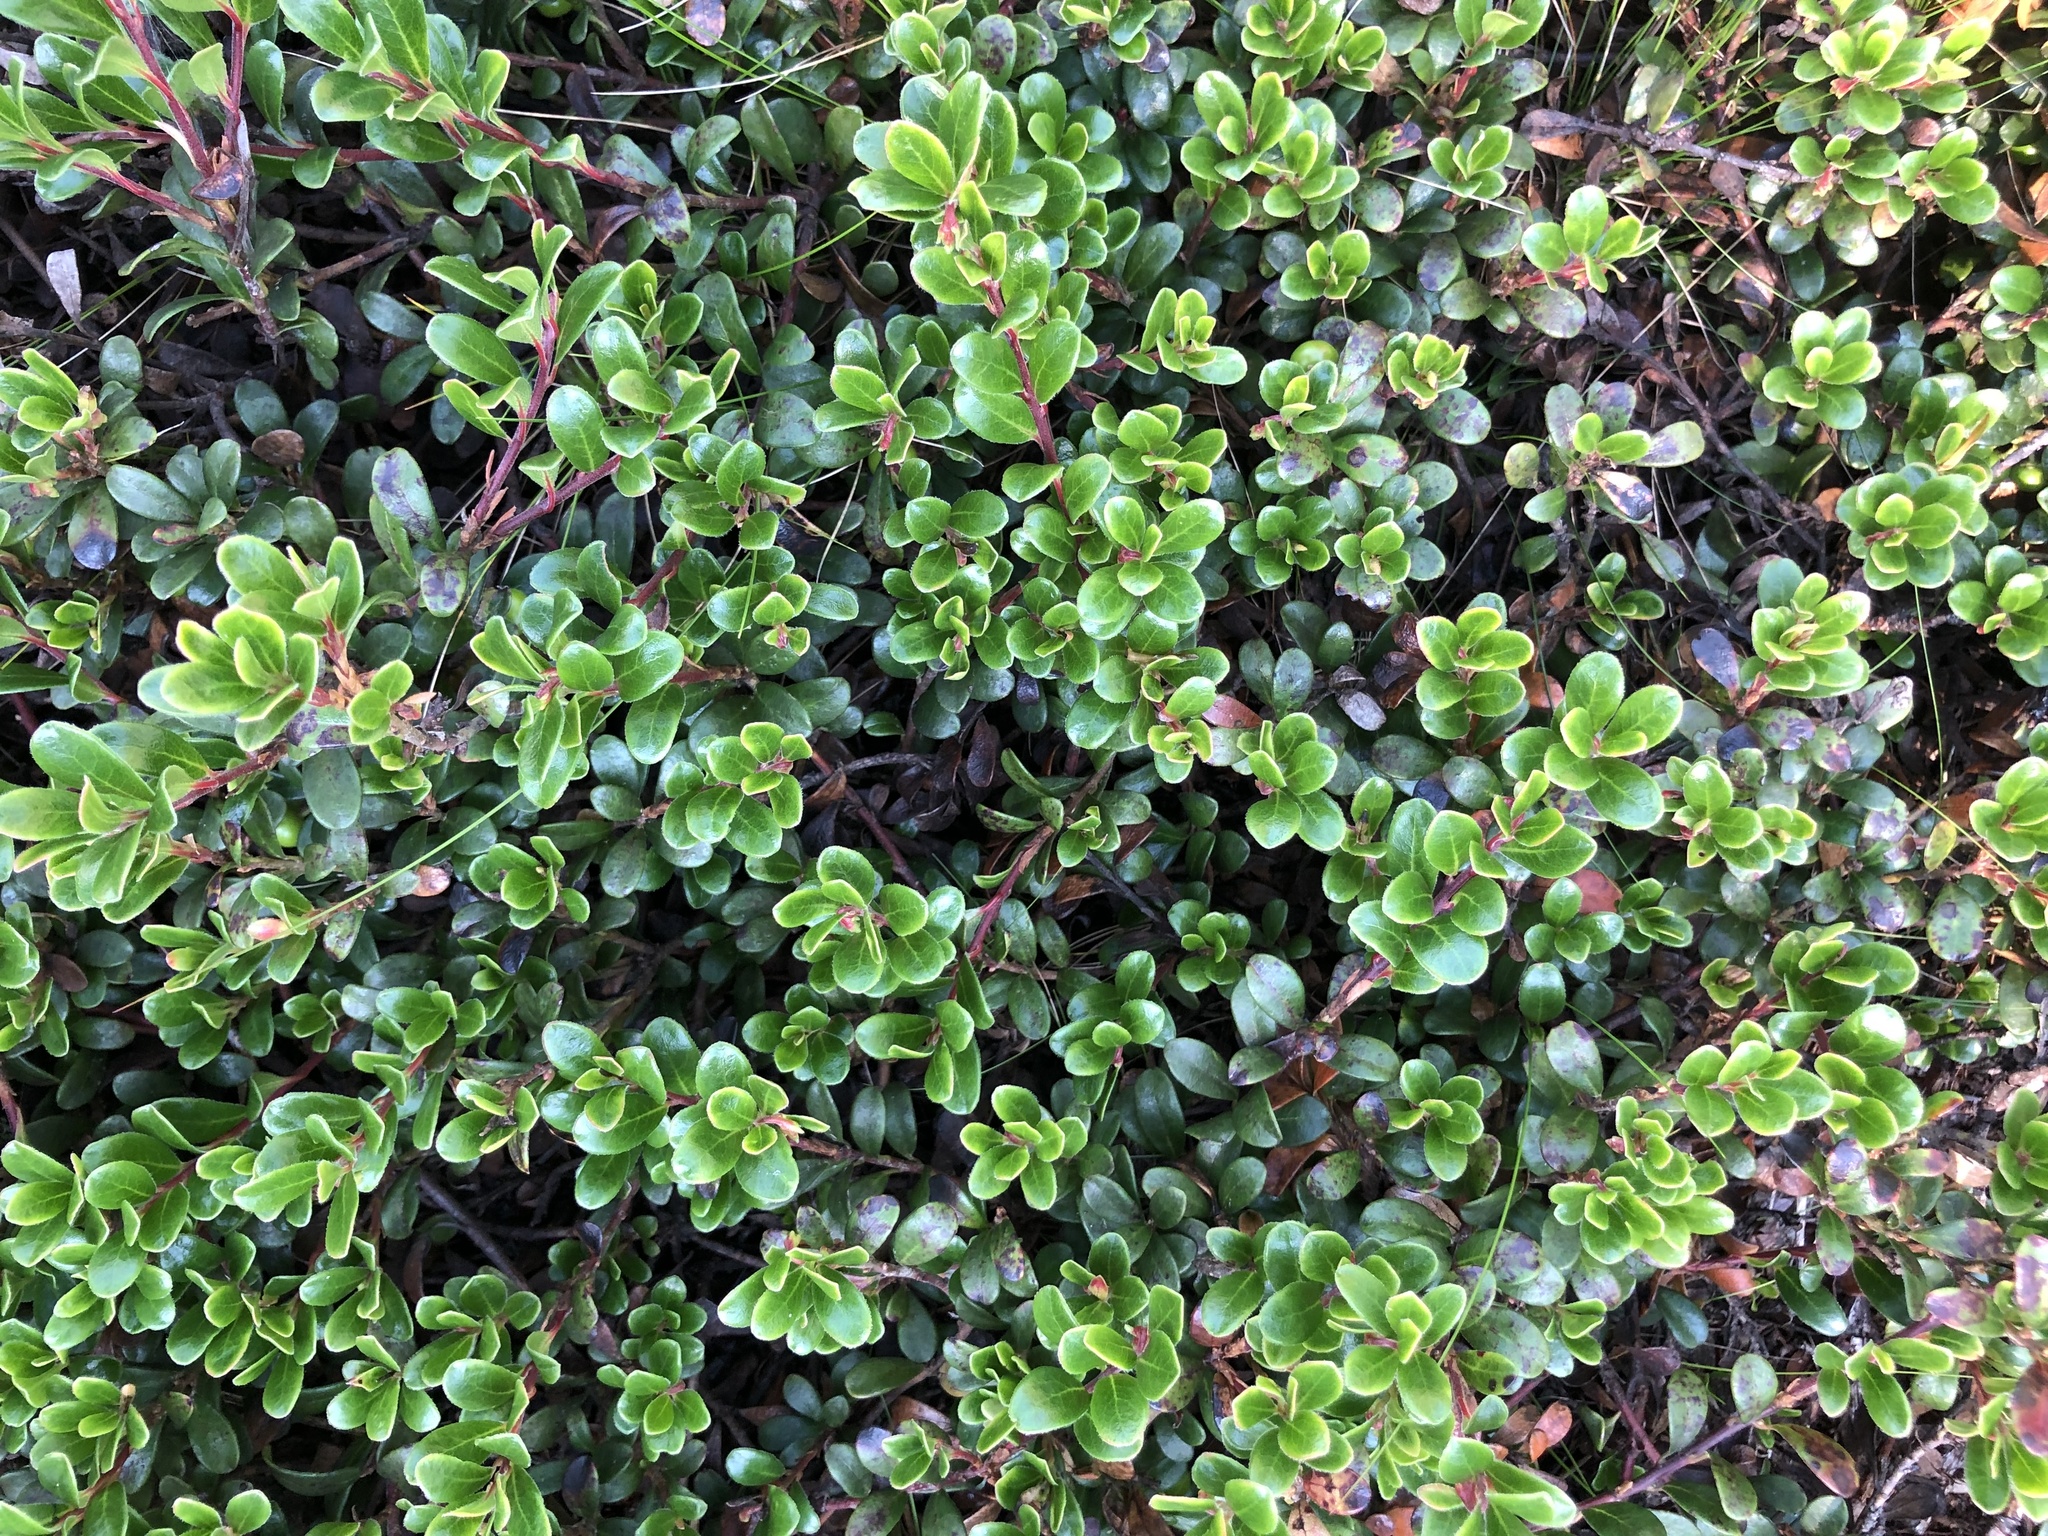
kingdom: Plantae
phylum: Tracheophyta
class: Magnoliopsida
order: Ericales
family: Ericaceae
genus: Arctostaphylos
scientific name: Arctostaphylos uva-ursi
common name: Bearberry
